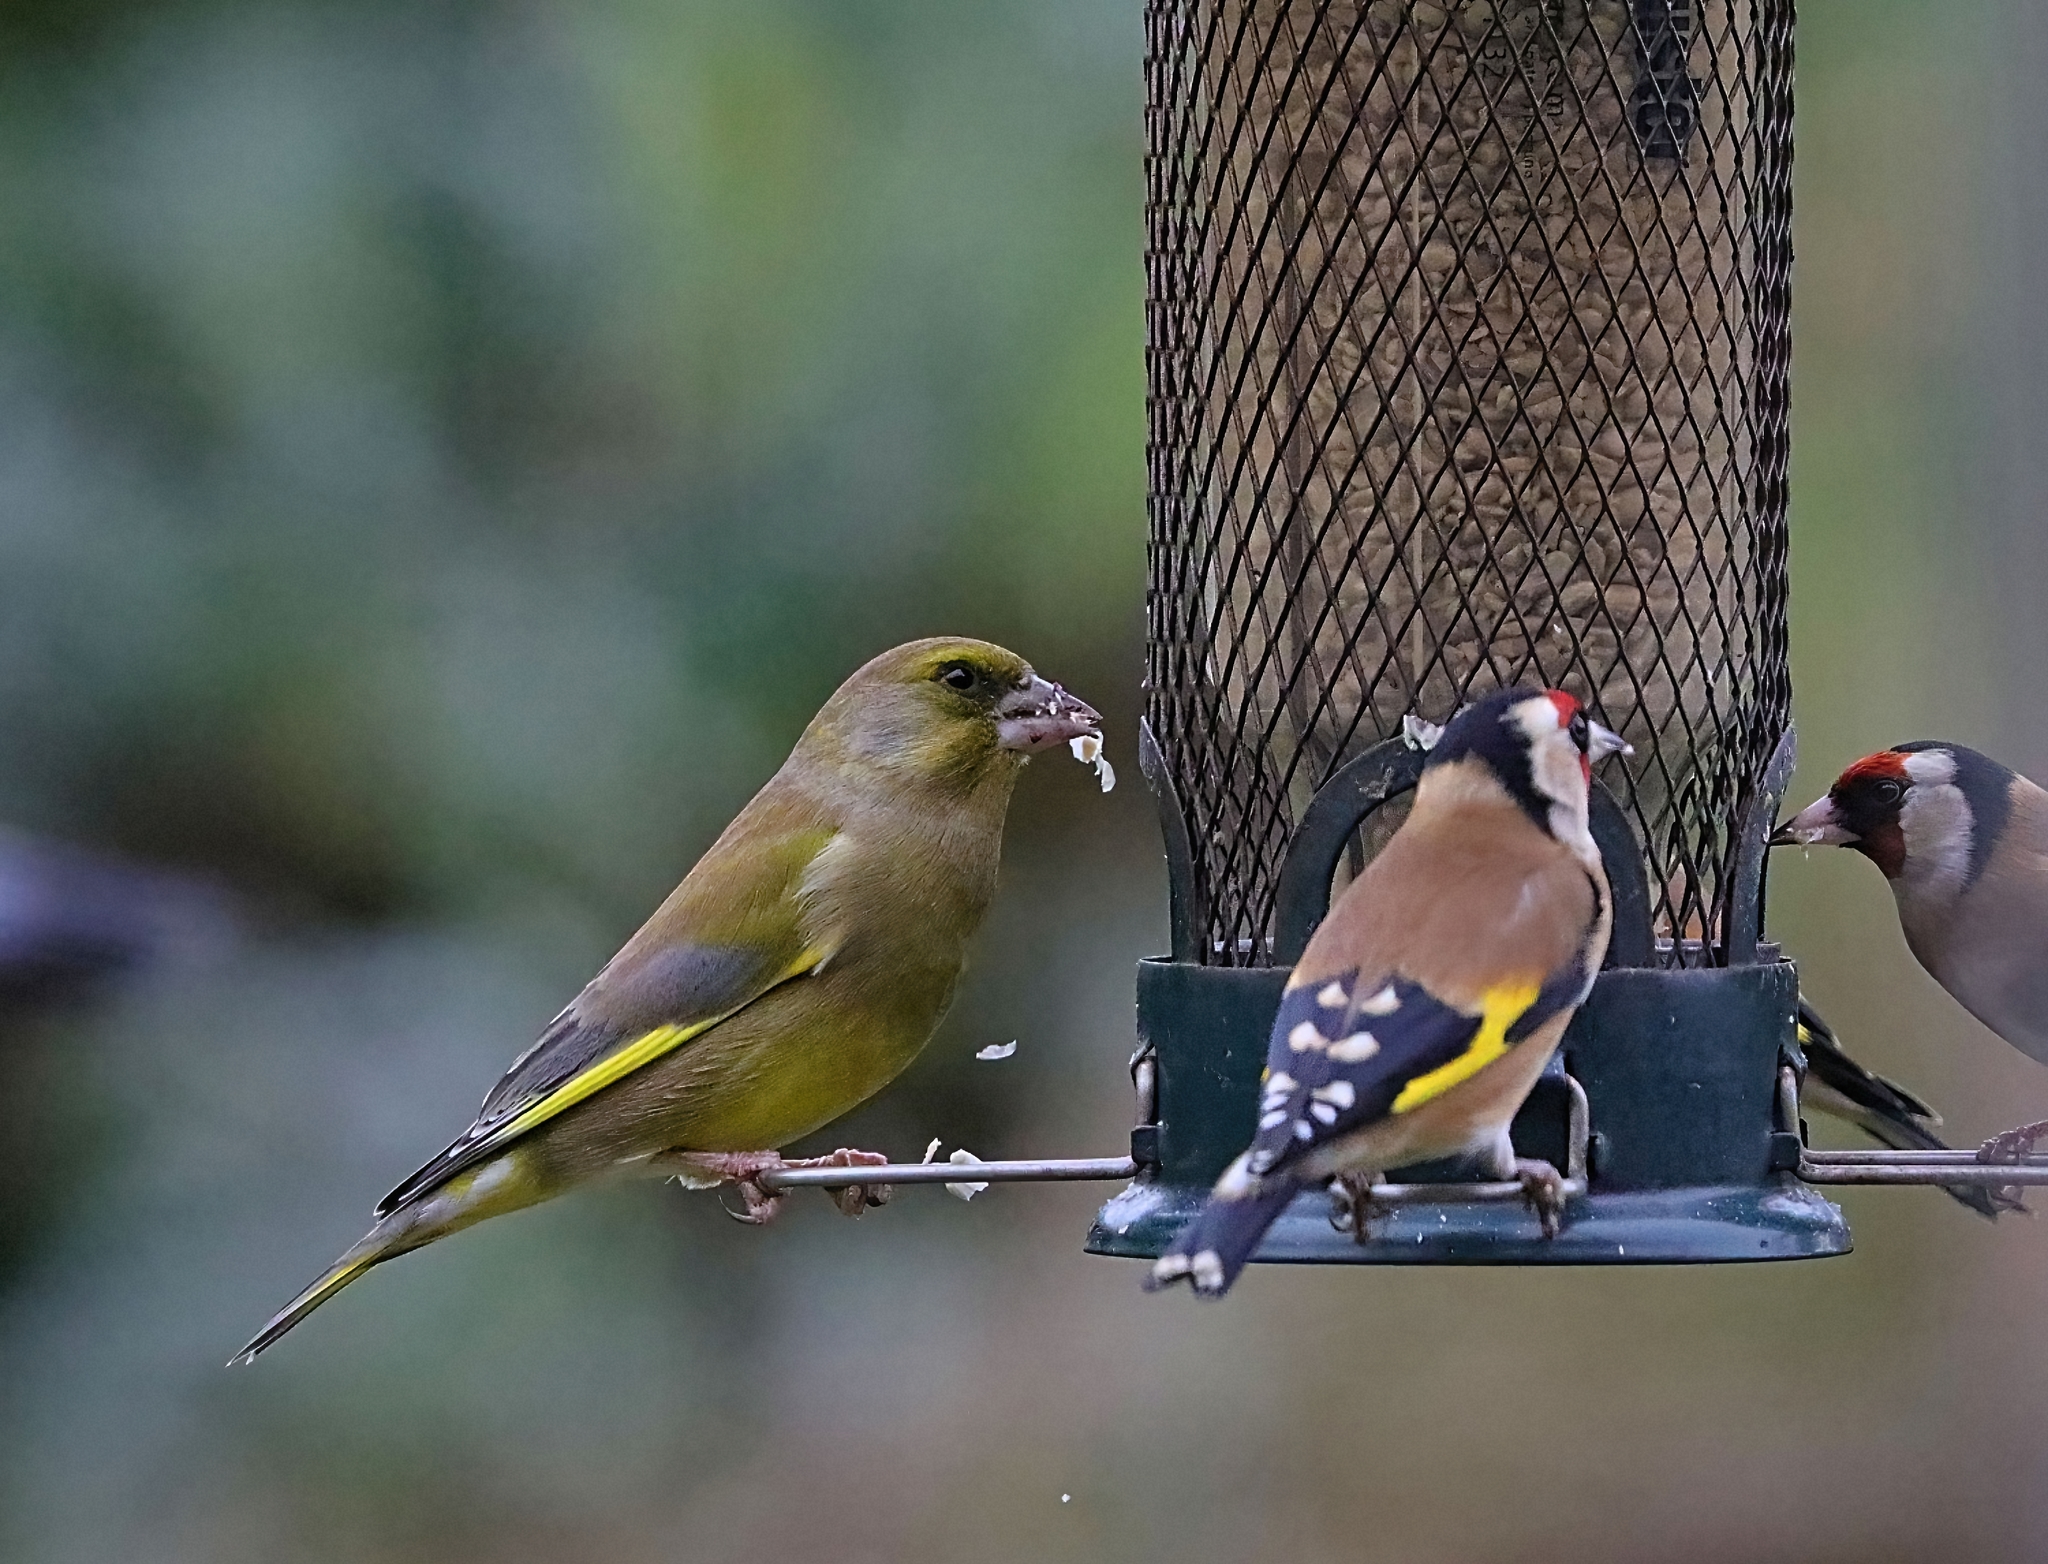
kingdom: Plantae
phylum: Tracheophyta
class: Liliopsida
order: Poales
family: Poaceae
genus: Chloris
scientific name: Chloris chloris
